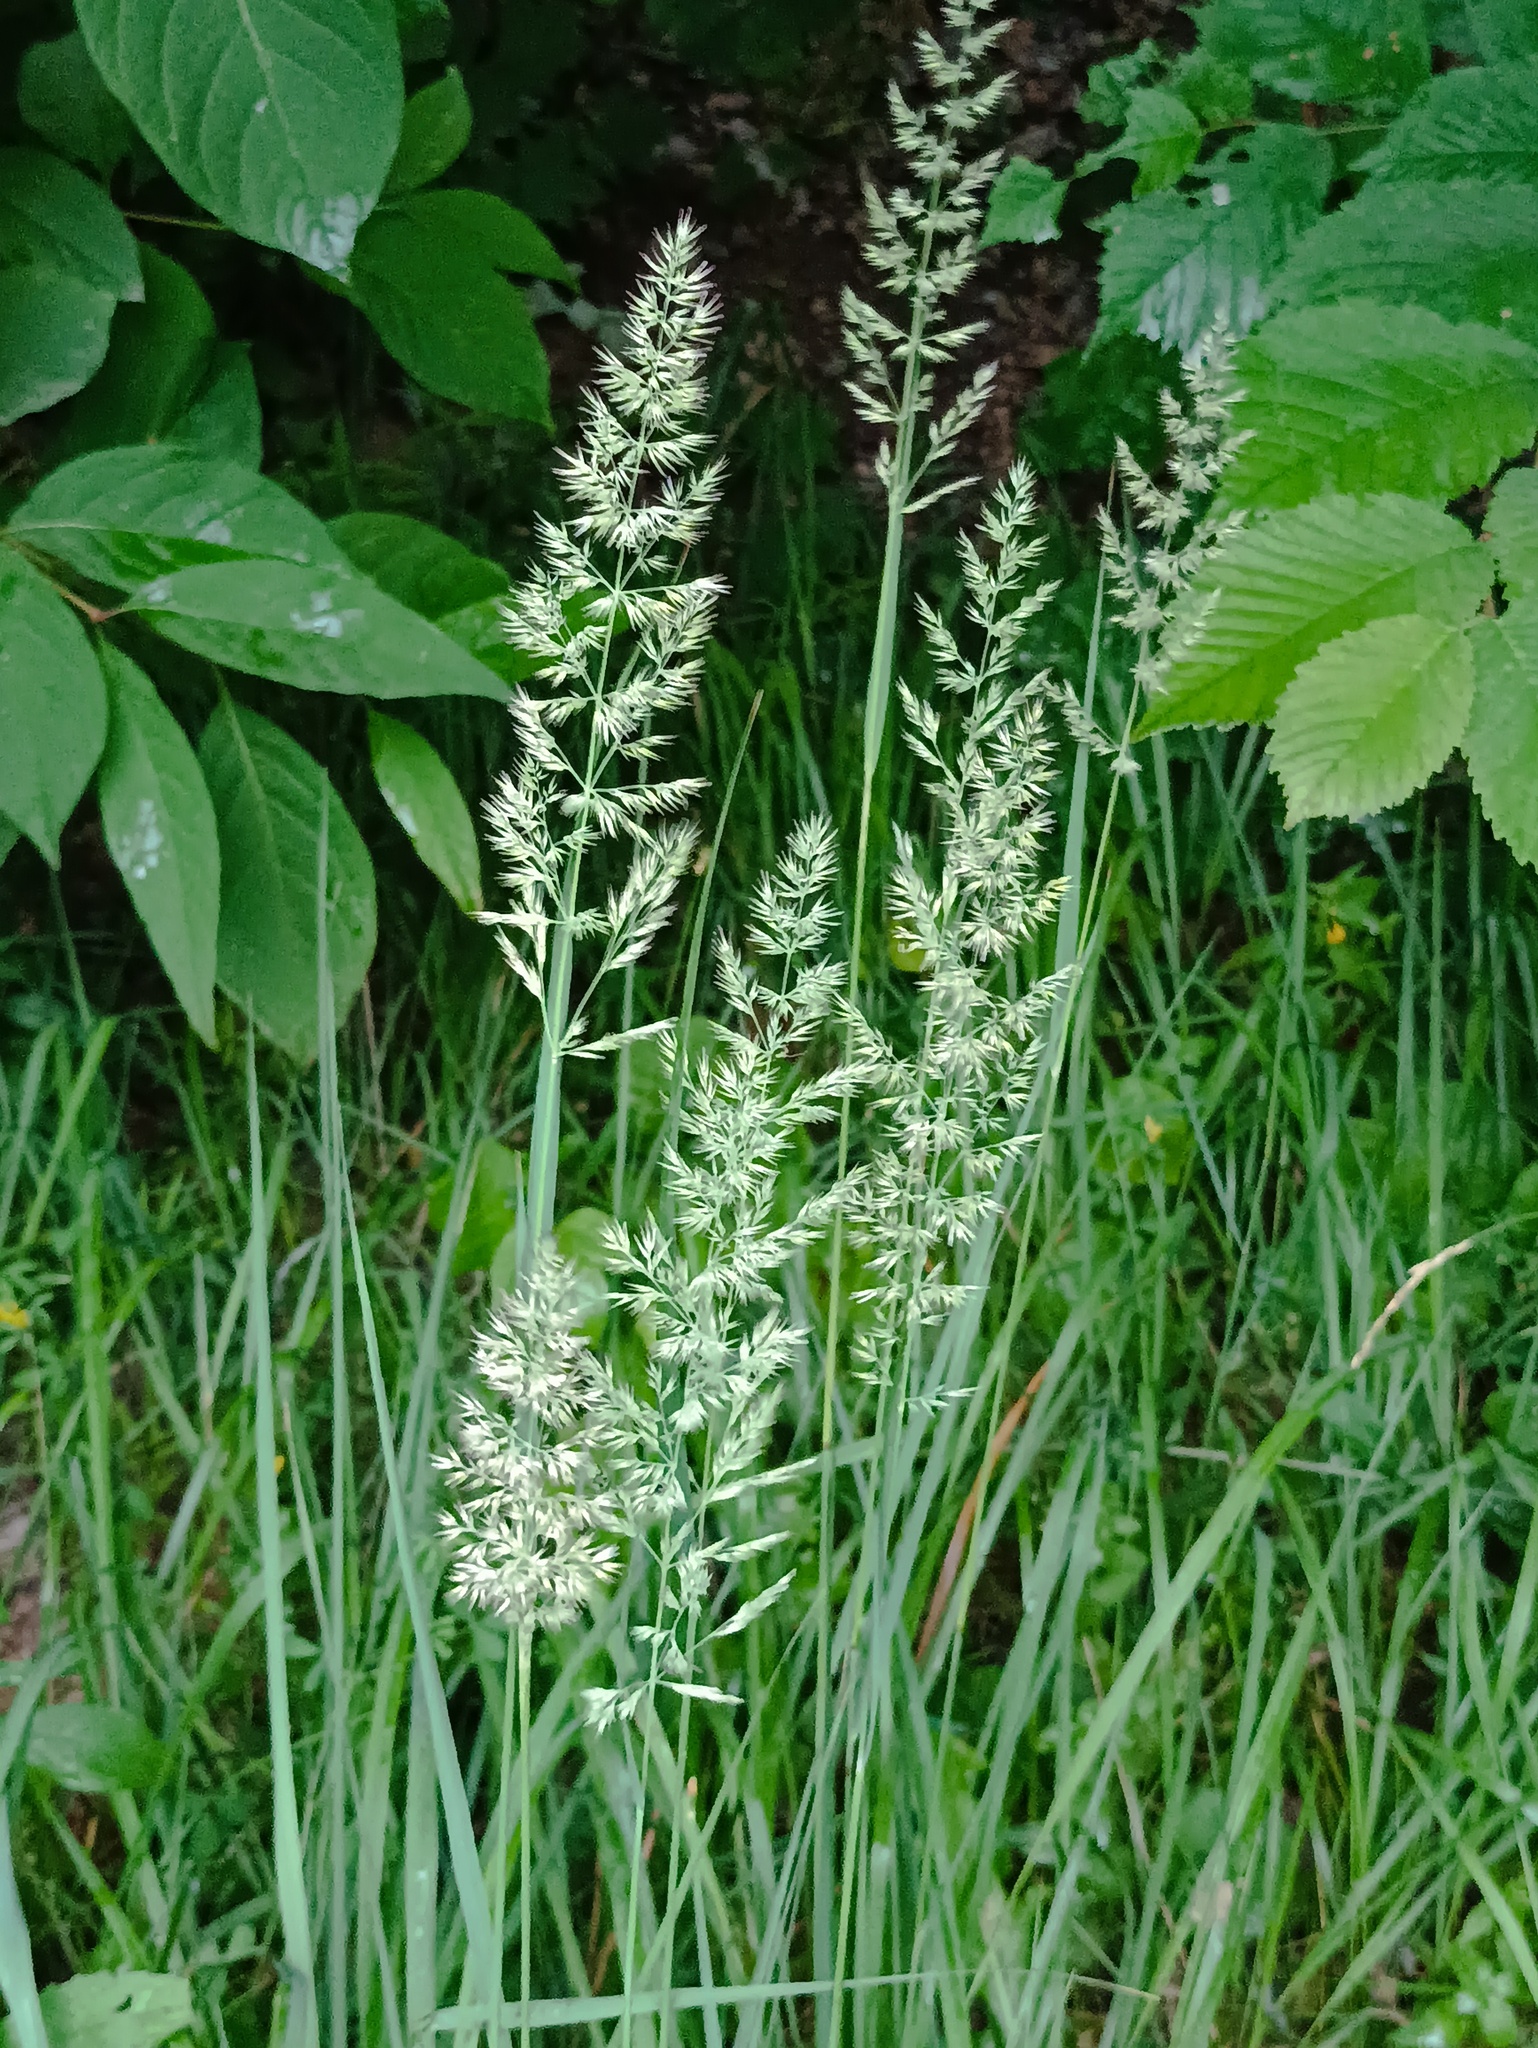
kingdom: Plantae
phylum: Tracheophyta
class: Liliopsida
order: Poales
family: Poaceae
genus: Calamagrostis
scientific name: Calamagrostis epigejos
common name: Wood small-reed
